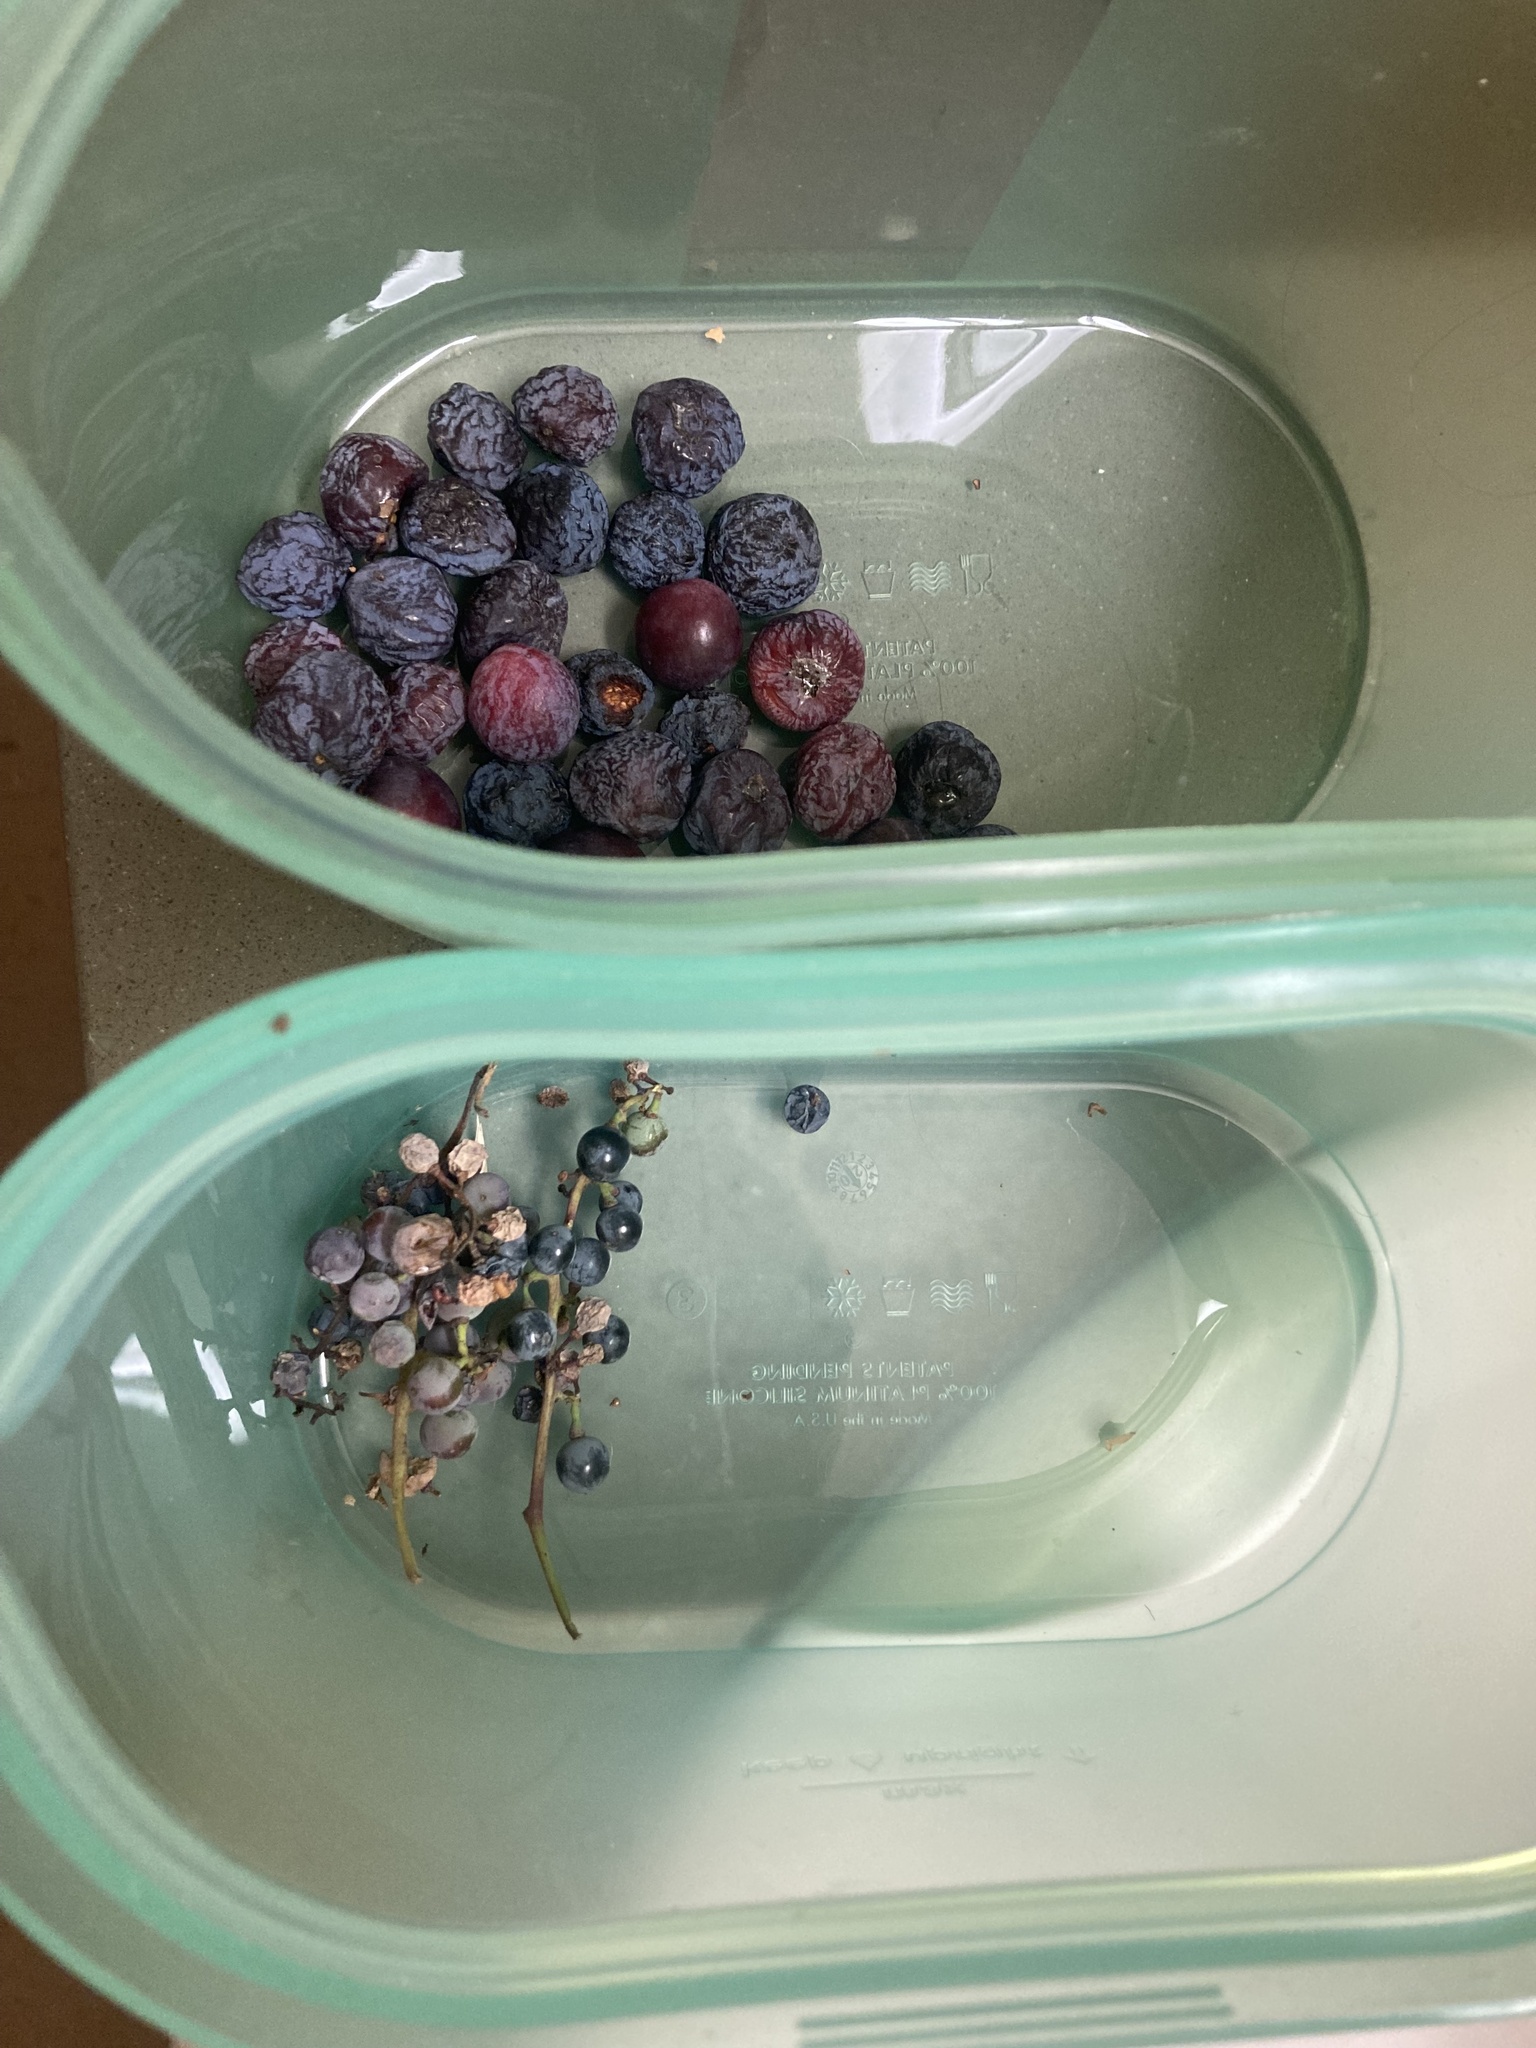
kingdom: Plantae
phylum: Tracheophyta
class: Magnoliopsida
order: Rosales
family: Rosaceae
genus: Prunus
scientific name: Prunus americana
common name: American plum
